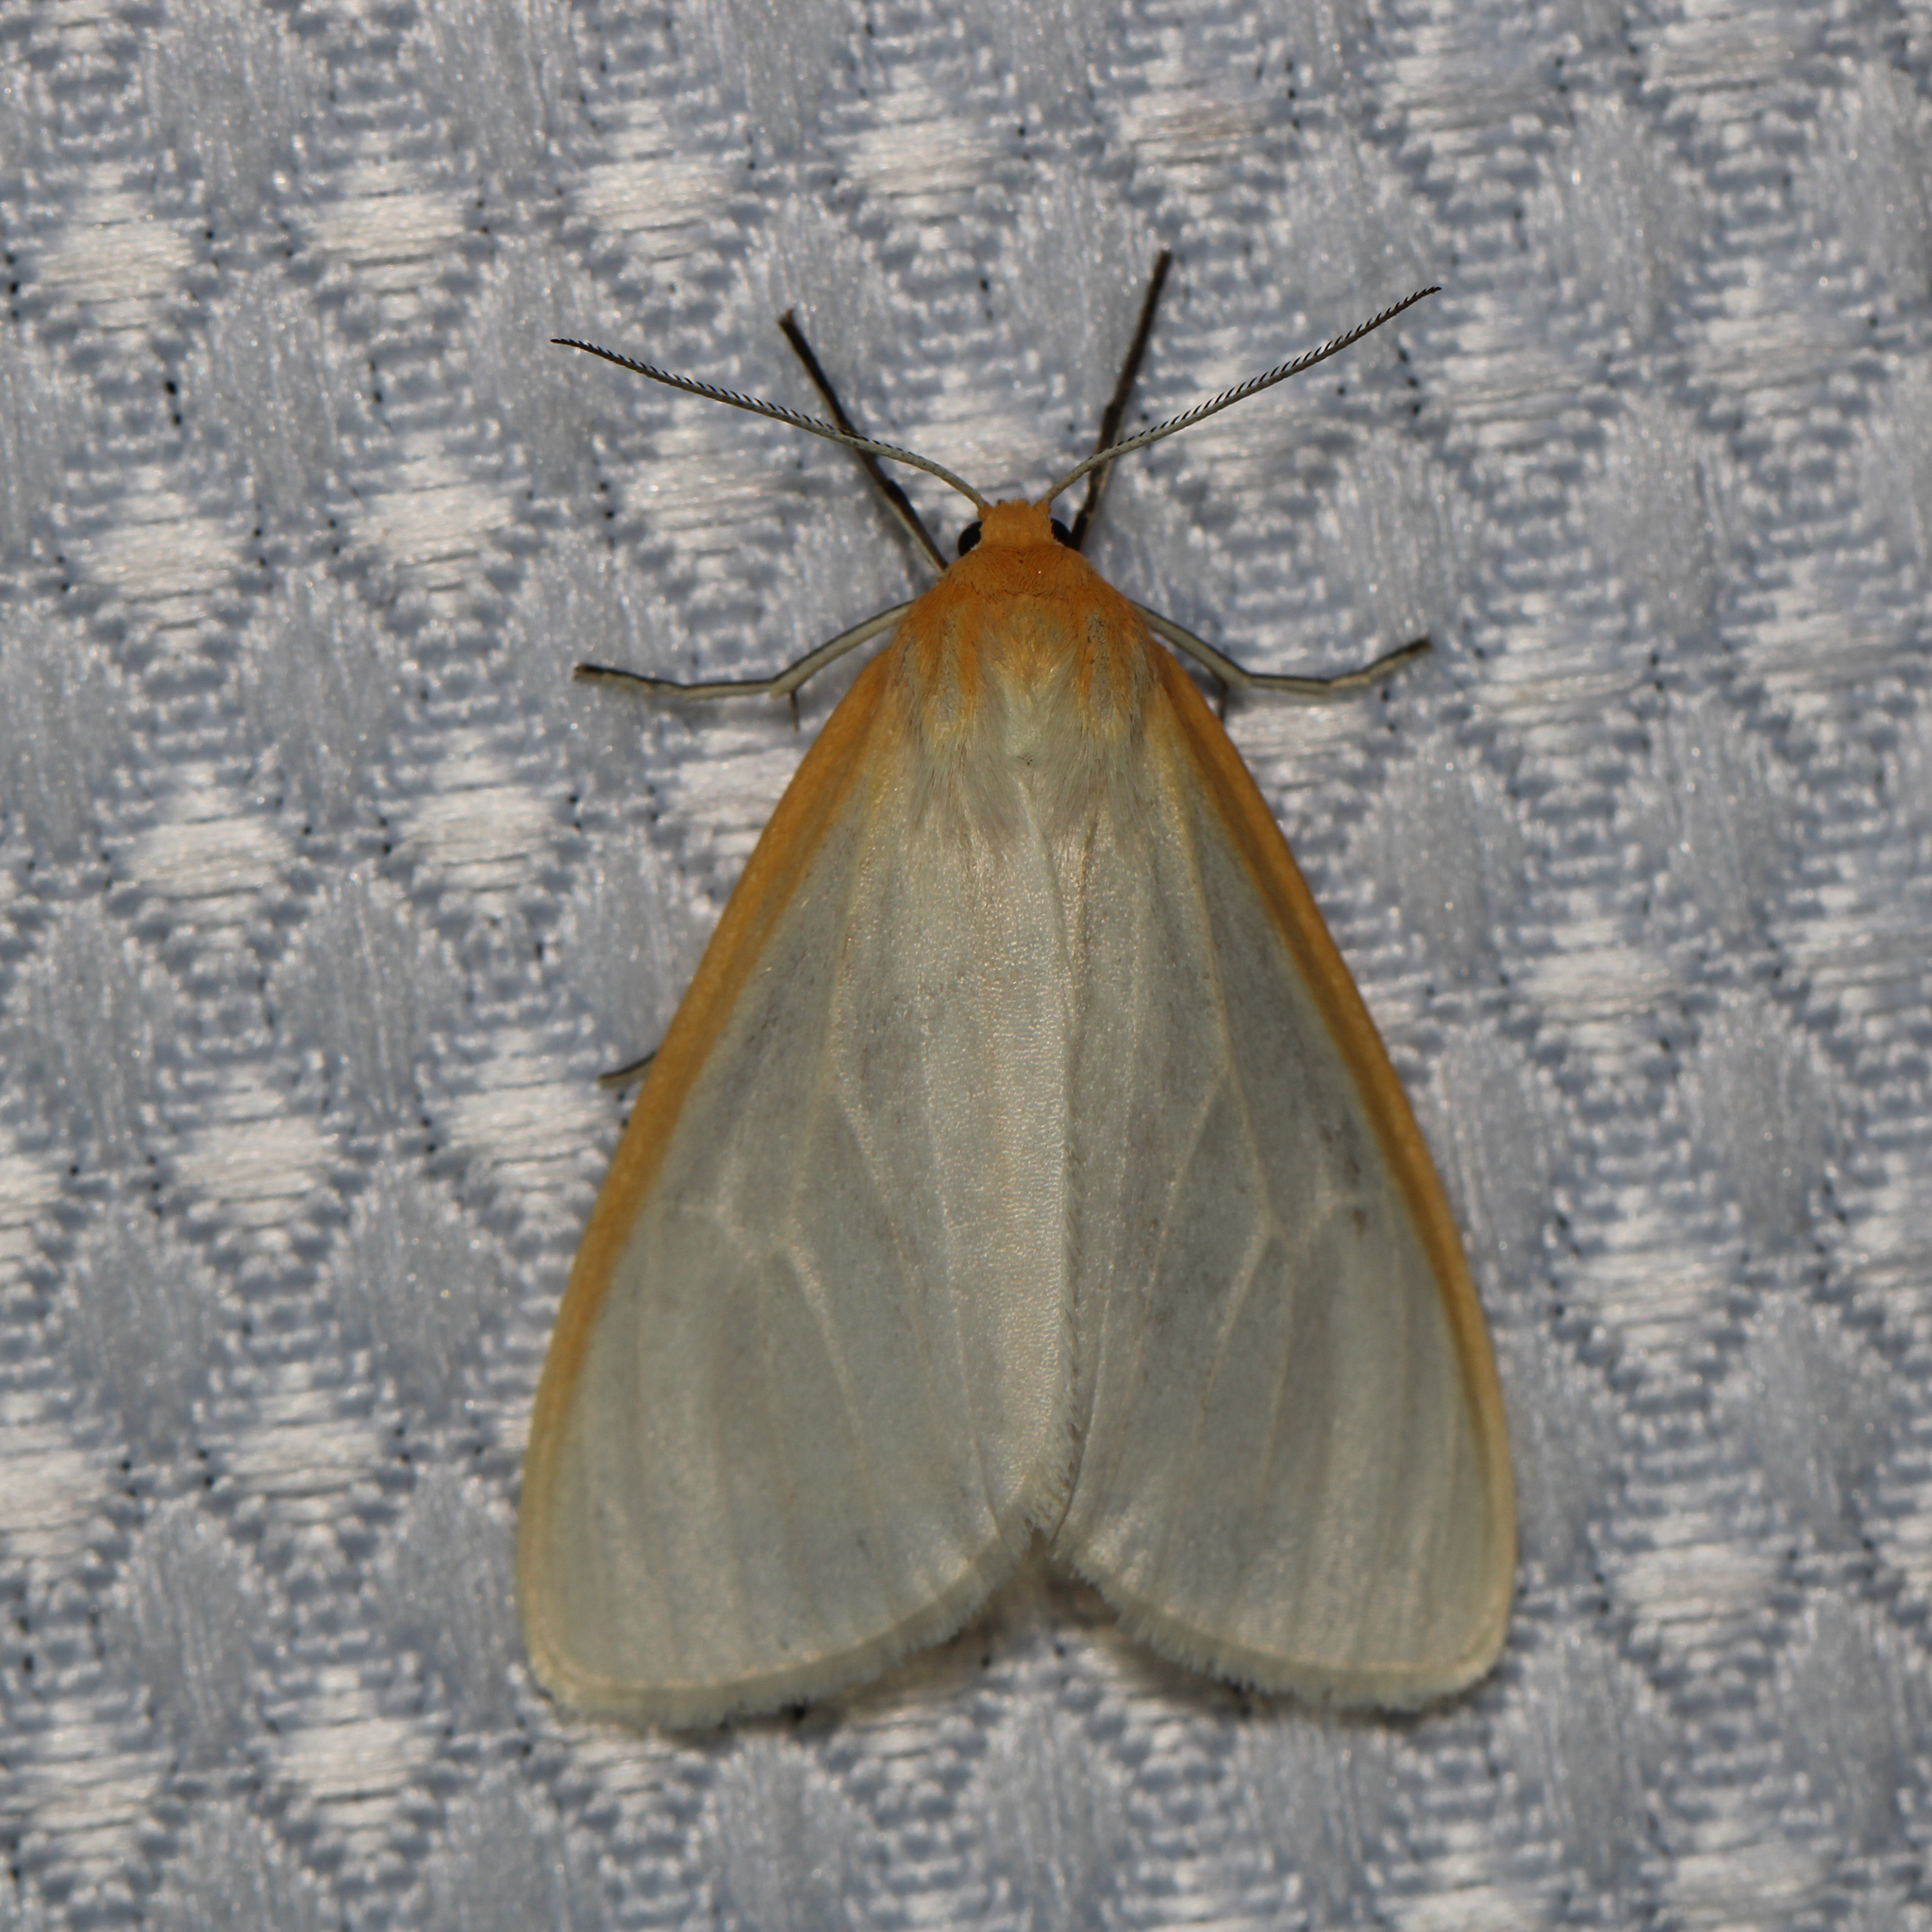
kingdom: Animalia
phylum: Arthropoda
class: Insecta
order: Lepidoptera
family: Erebidae
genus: Cycnia
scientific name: Cycnia tenera
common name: Delicate cycnia moth
